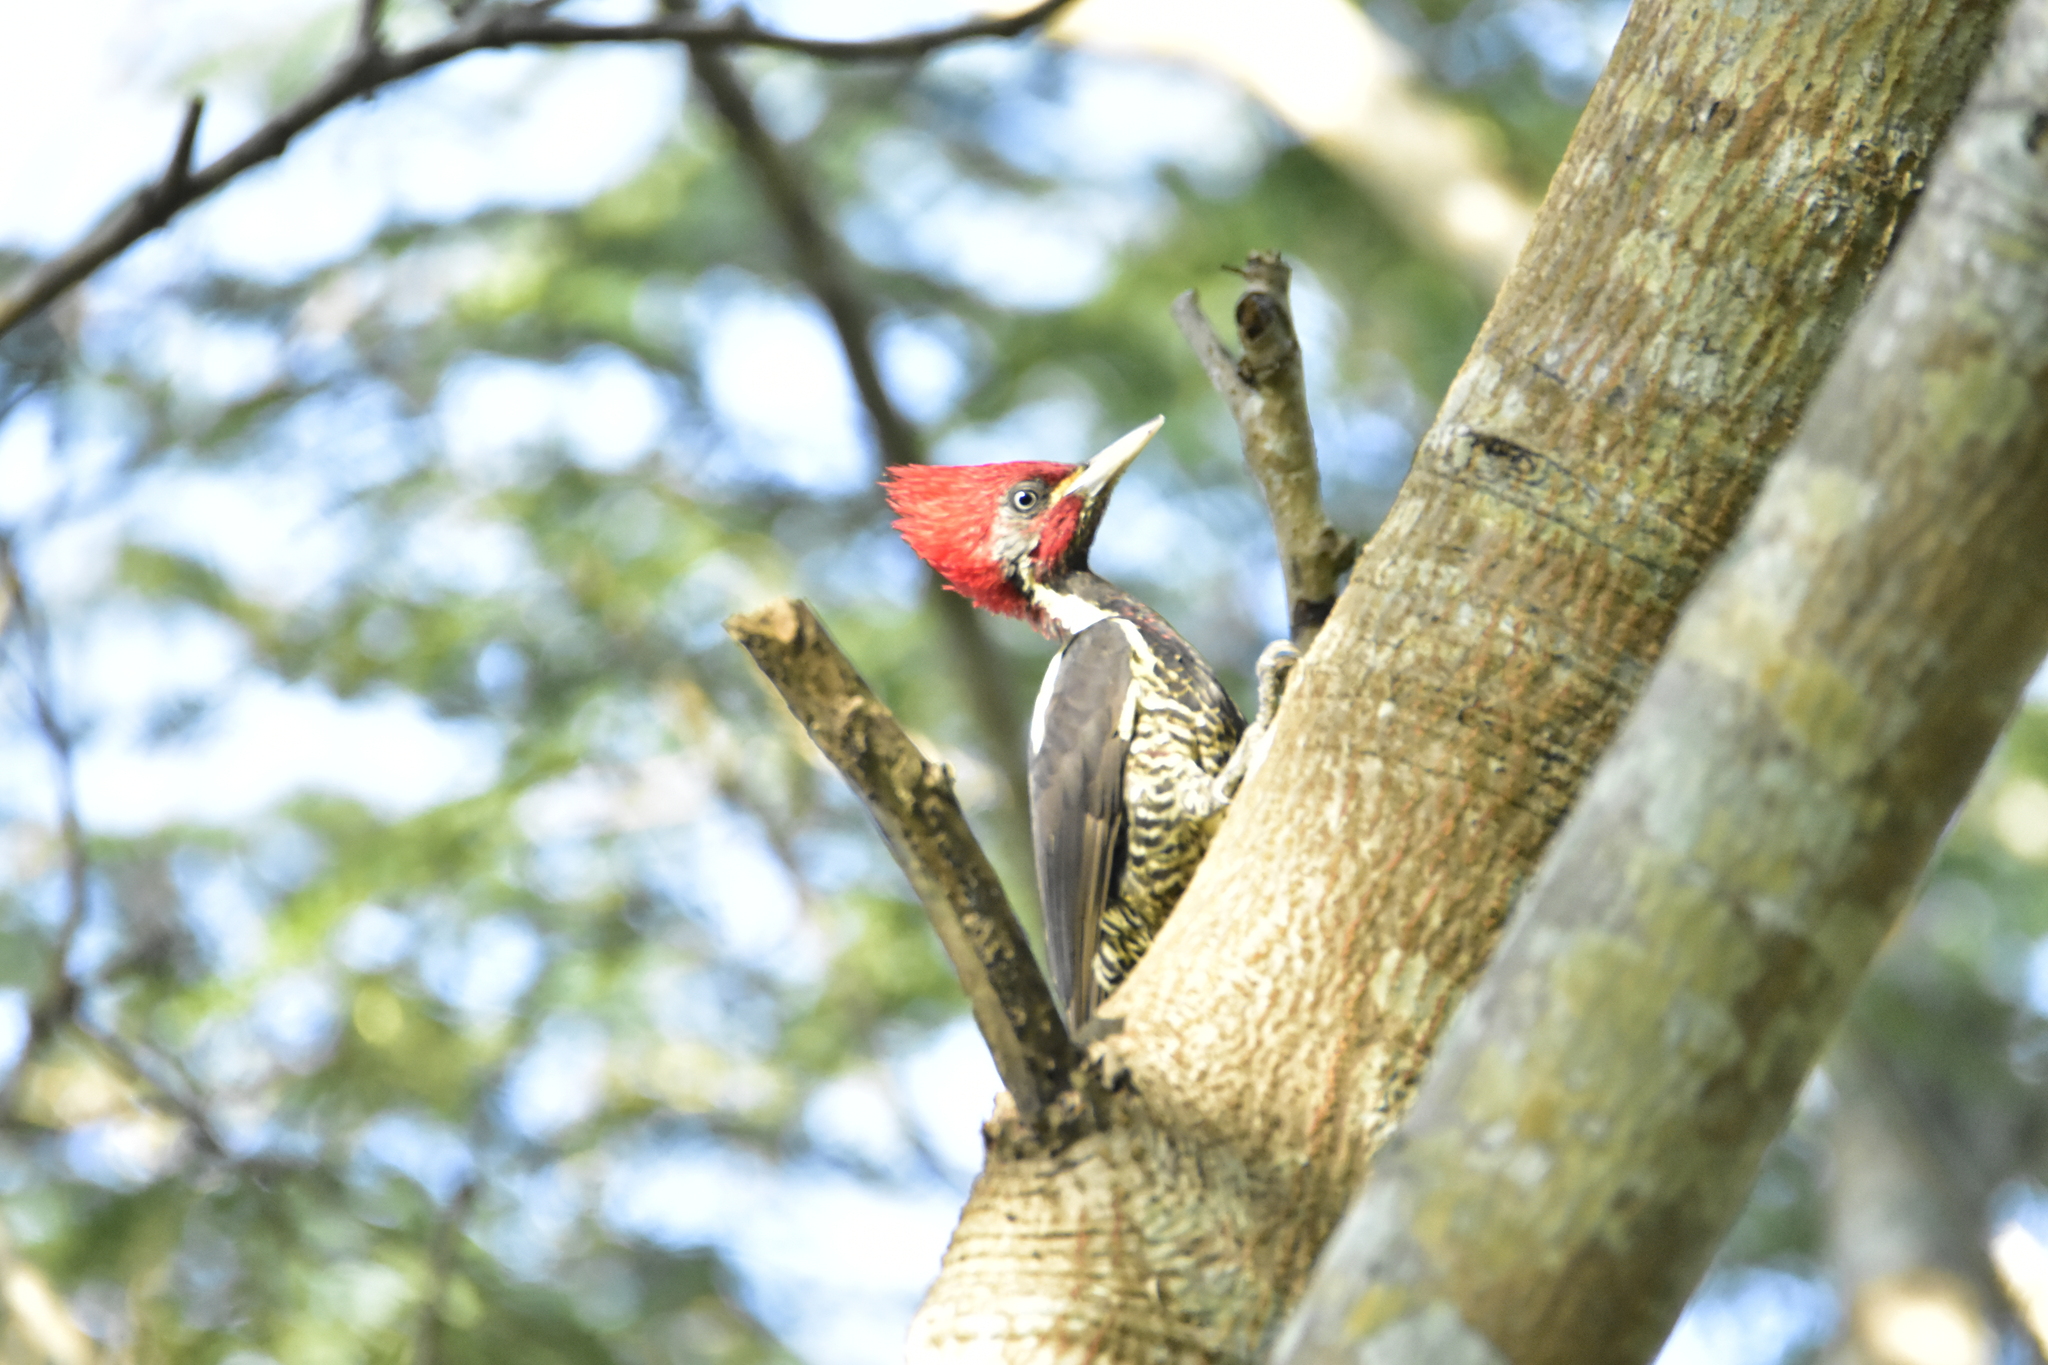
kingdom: Animalia
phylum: Chordata
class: Aves
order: Piciformes
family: Picidae
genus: Dryocopus
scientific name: Dryocopus lineatus
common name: Lineated woodpecker
